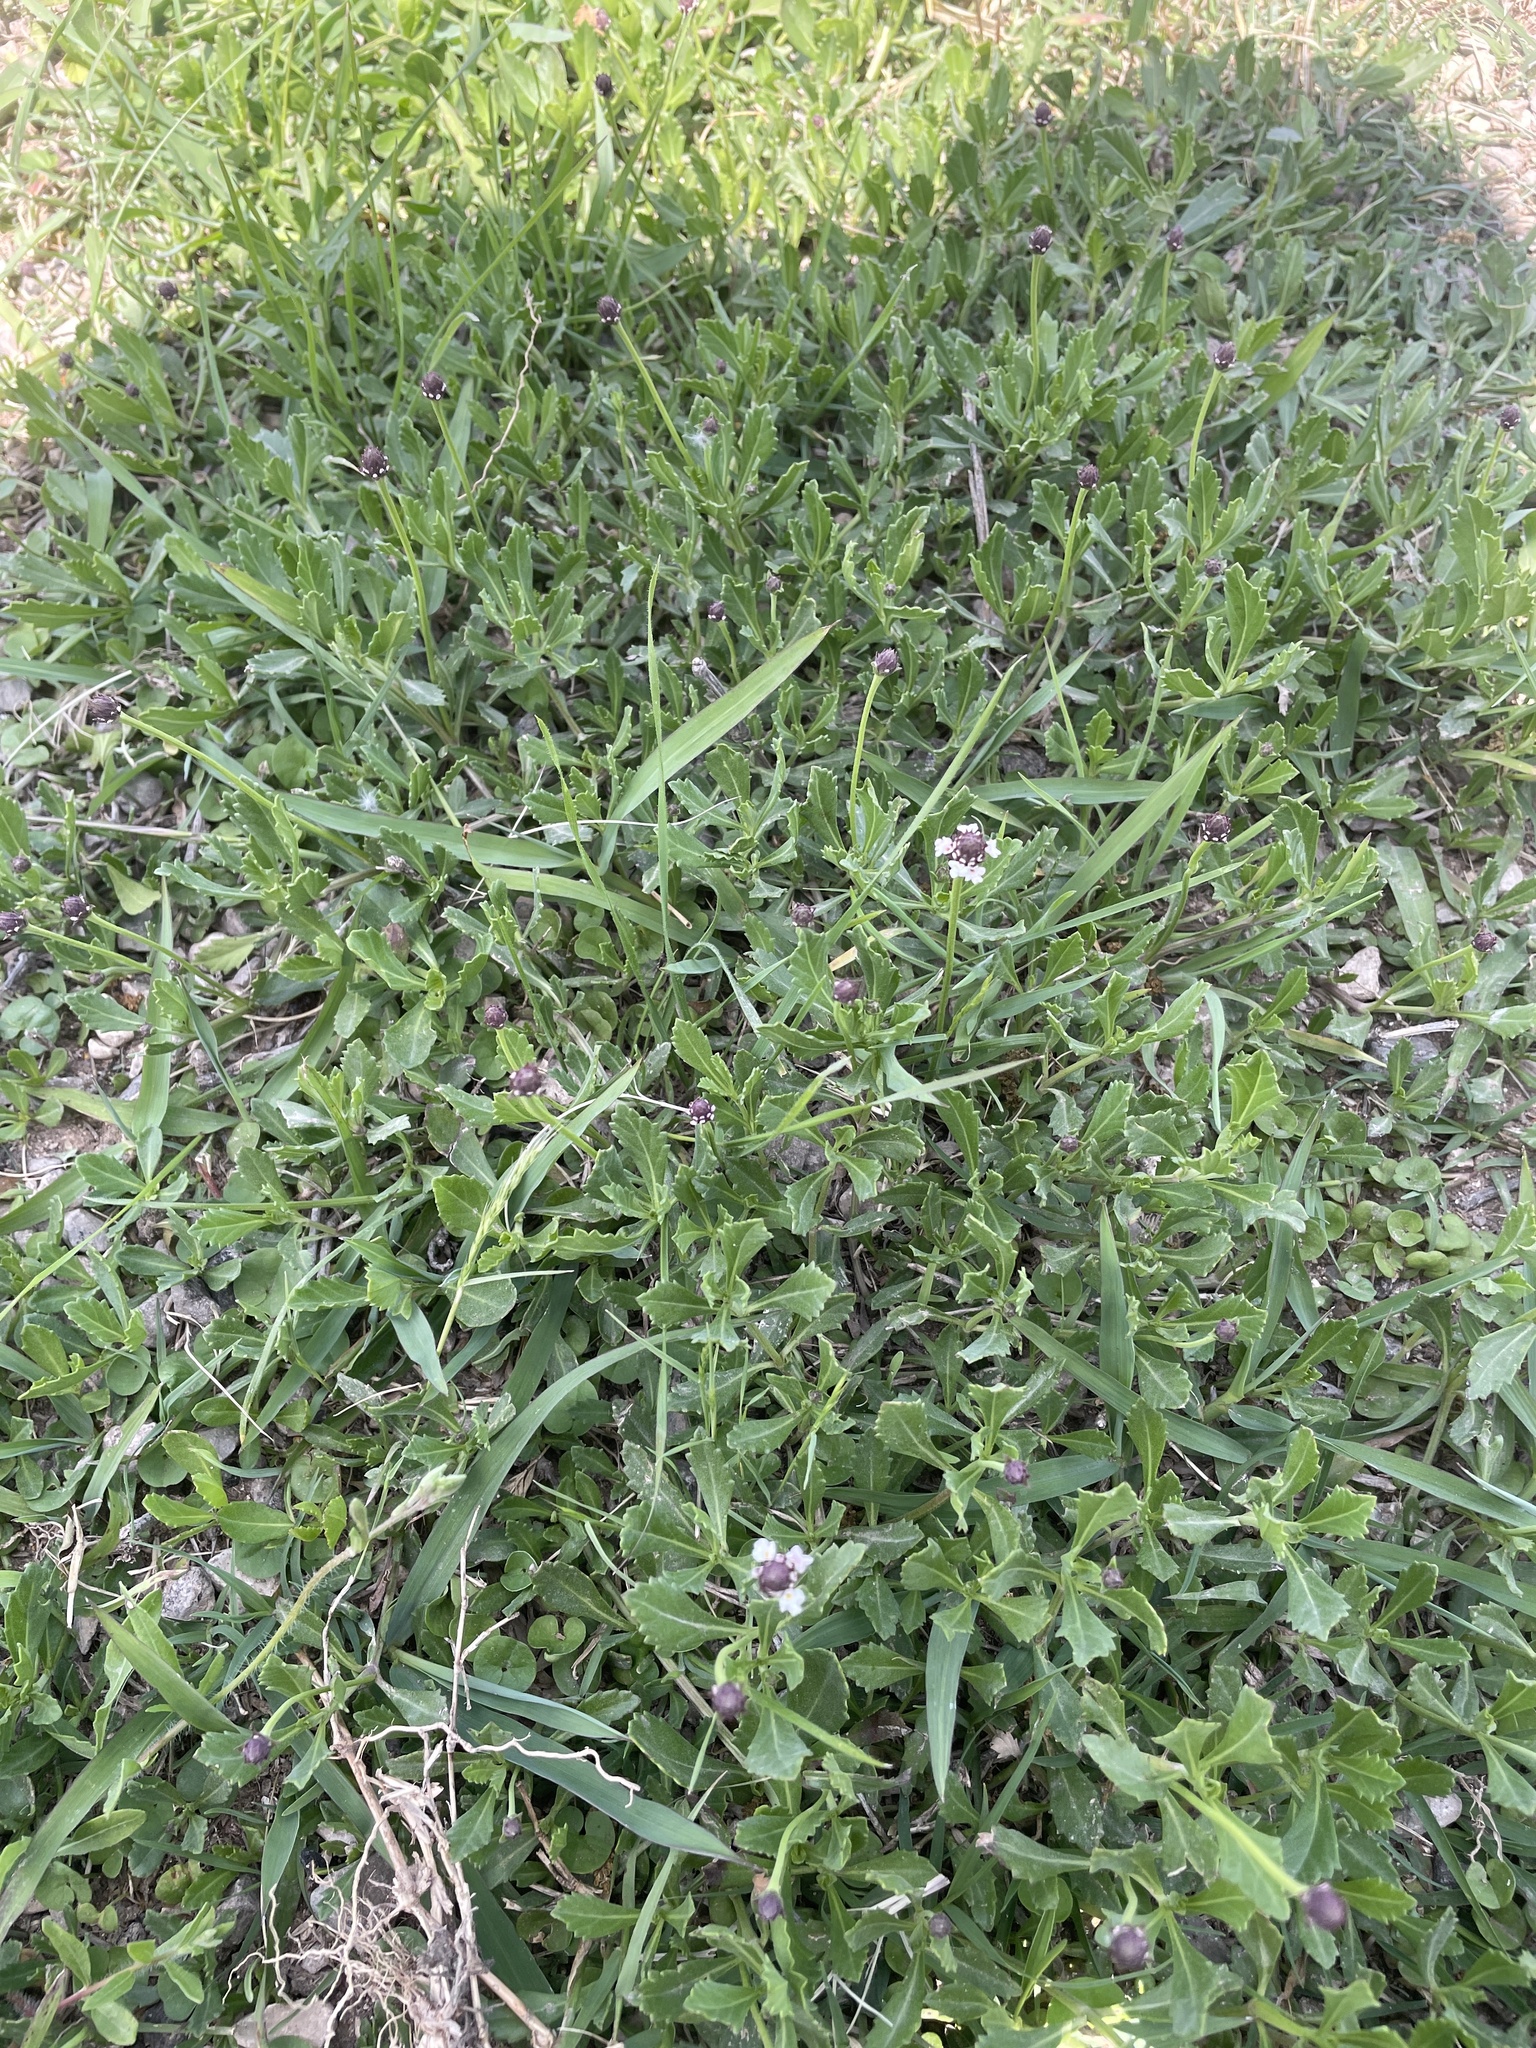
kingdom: Plantae
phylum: Tracheophyta
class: Magnoliopsida
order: Lamiales
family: Verbenaceae
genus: Phyla
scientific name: Phyla nodiflora
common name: Frogfruit
